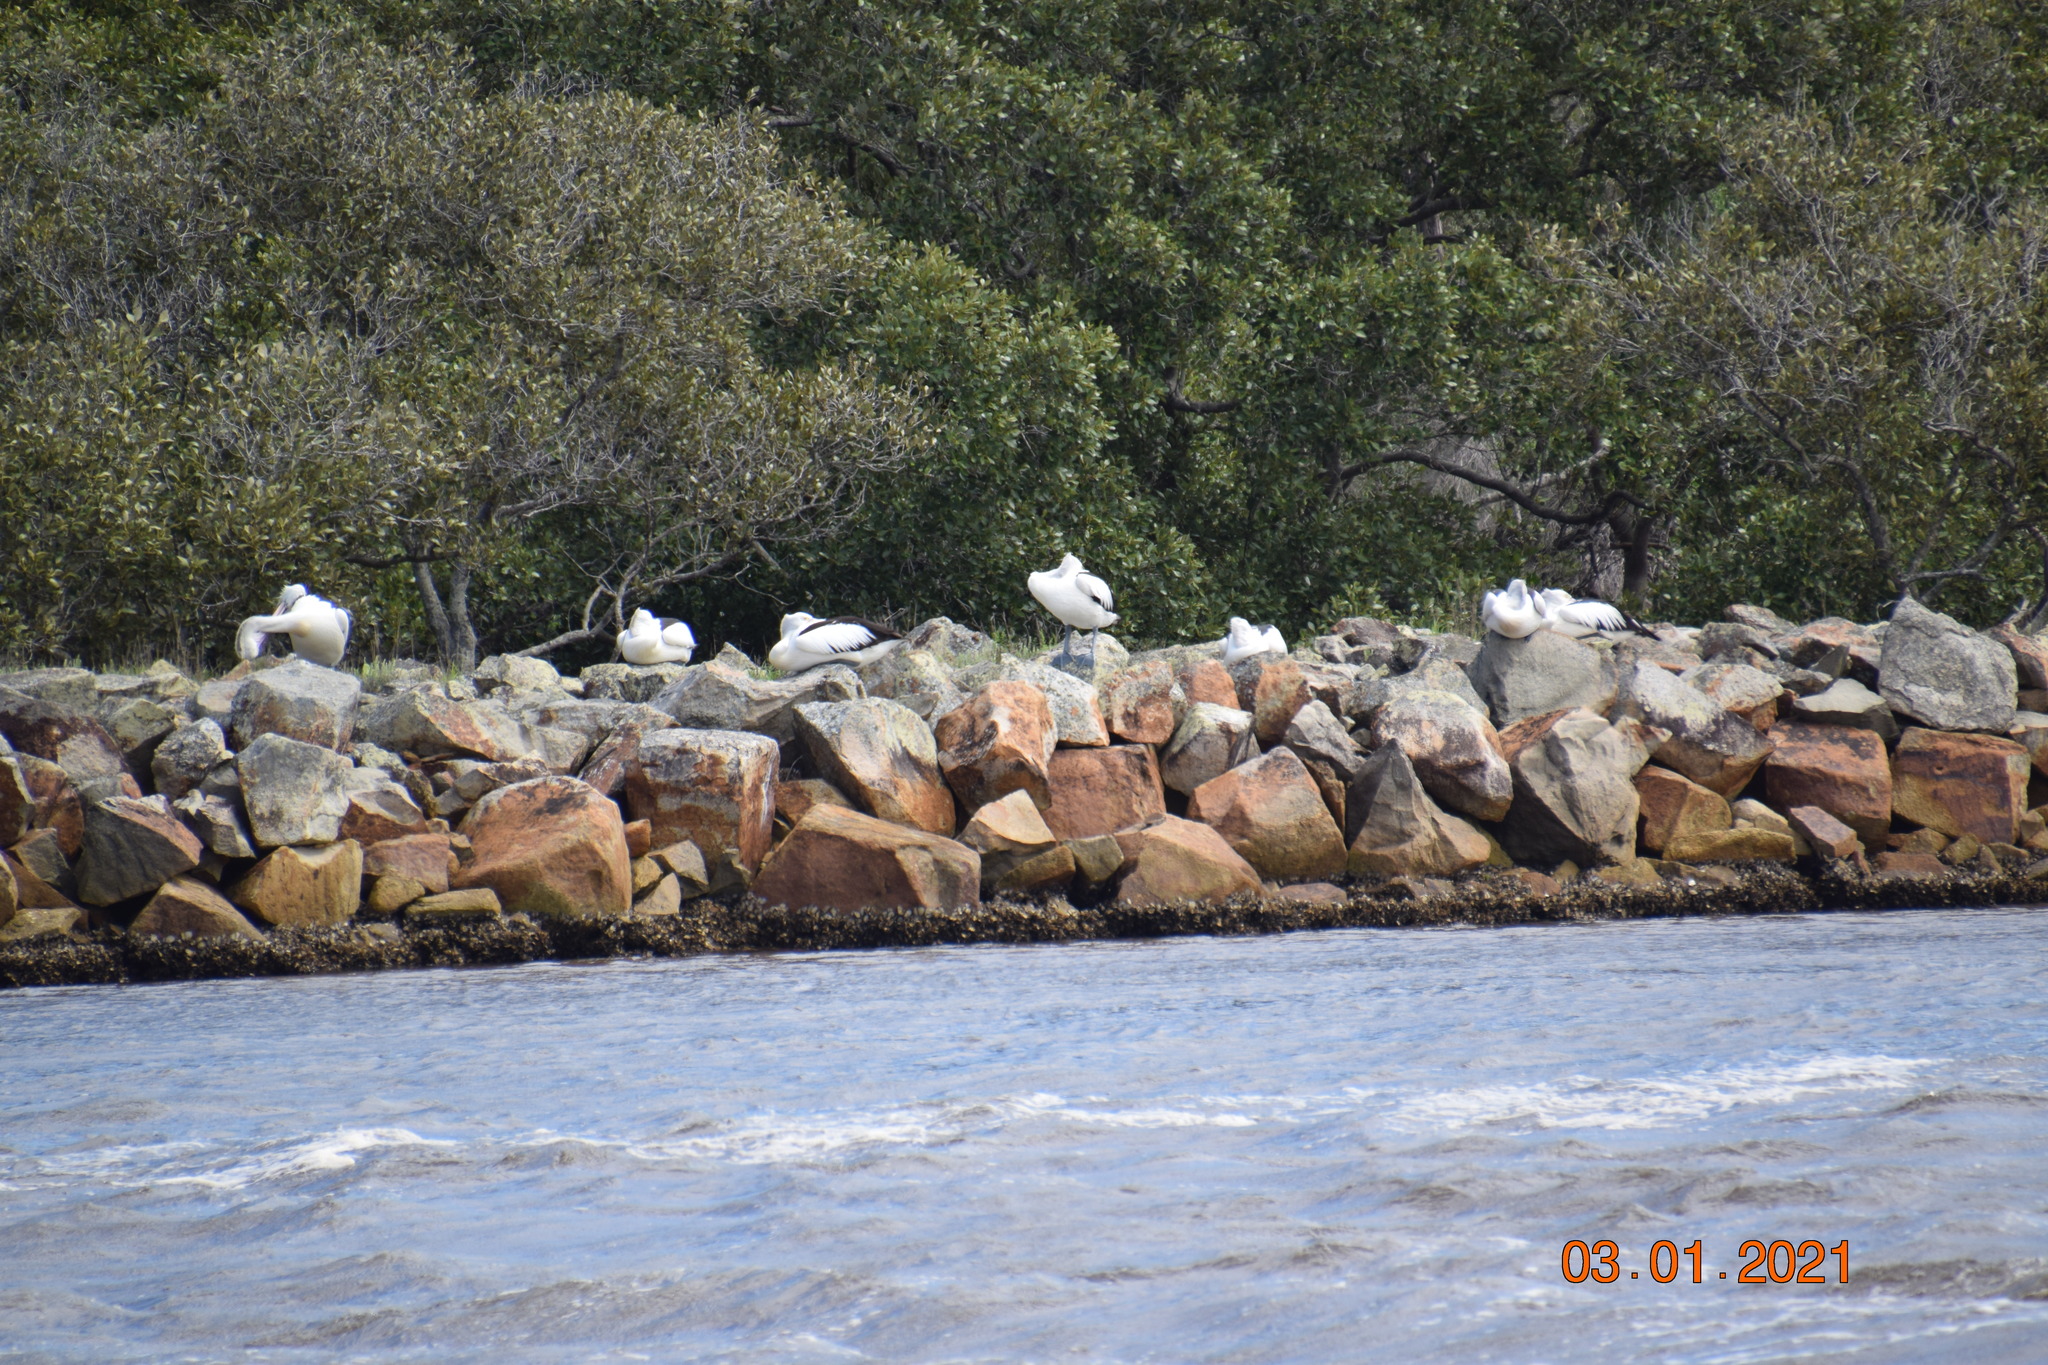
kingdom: Animalia
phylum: Chordata
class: Aves
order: Pelecaniformes
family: Pelecanidae
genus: Pelecanus
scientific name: Pelecanus conspicillatus
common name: Australian pelican
